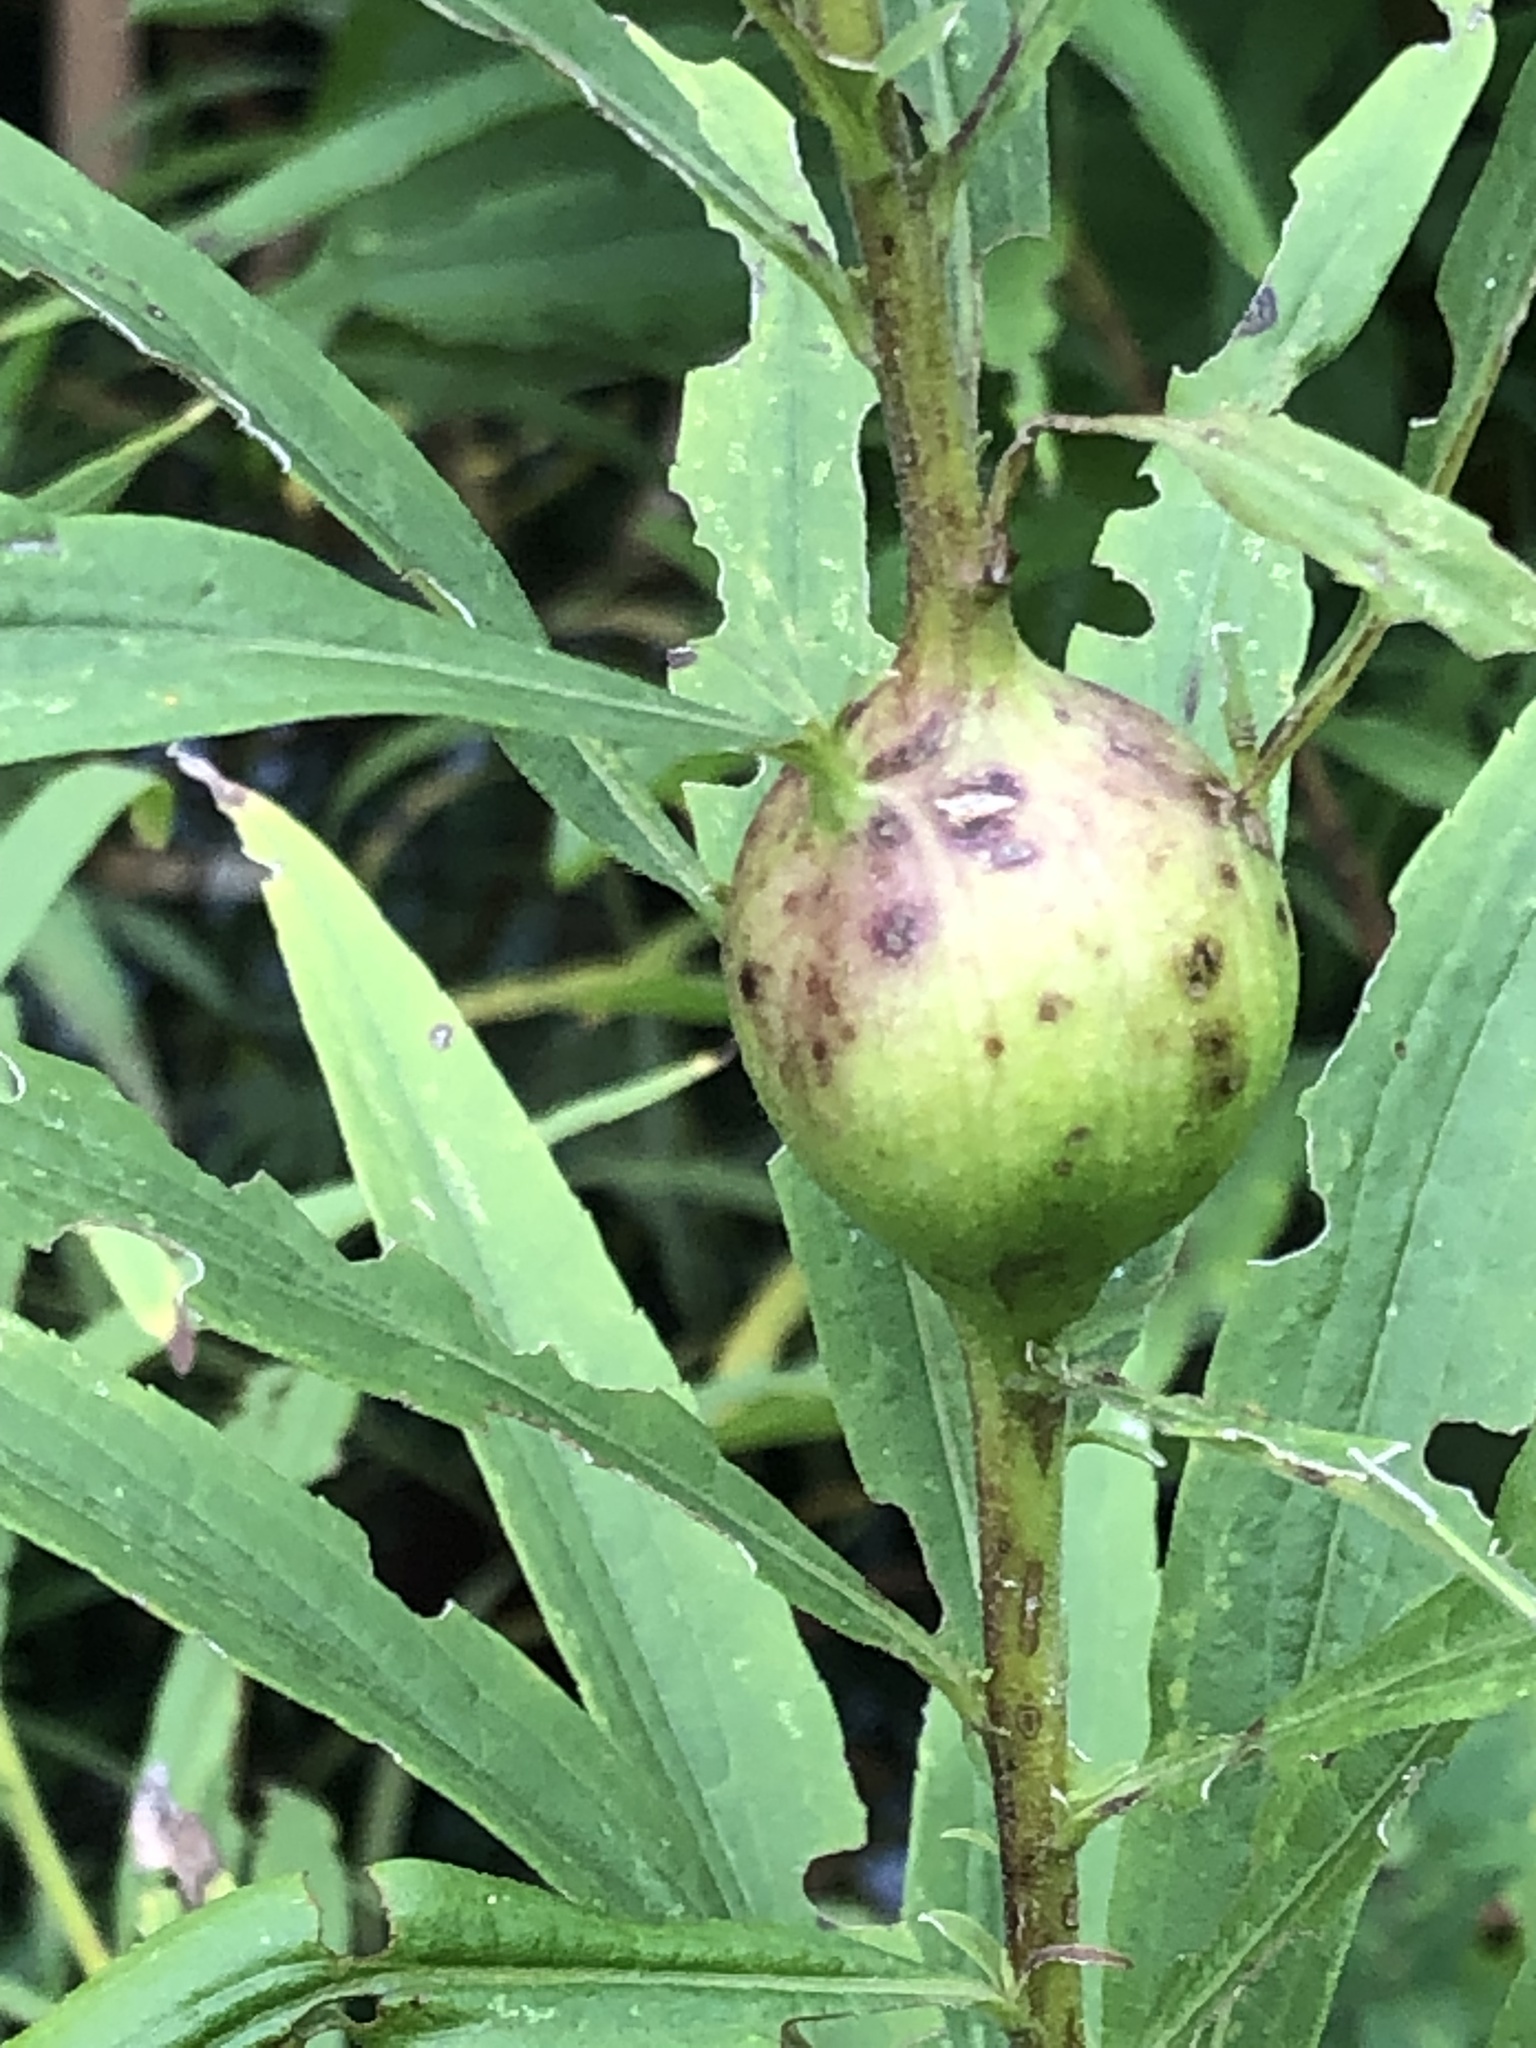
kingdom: Animalia
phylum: Arthropoda
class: Insecta
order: Diptera
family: Tephritidae
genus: Eurosta
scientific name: Eurosta solidaginis
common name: Goldenrod gall fly
